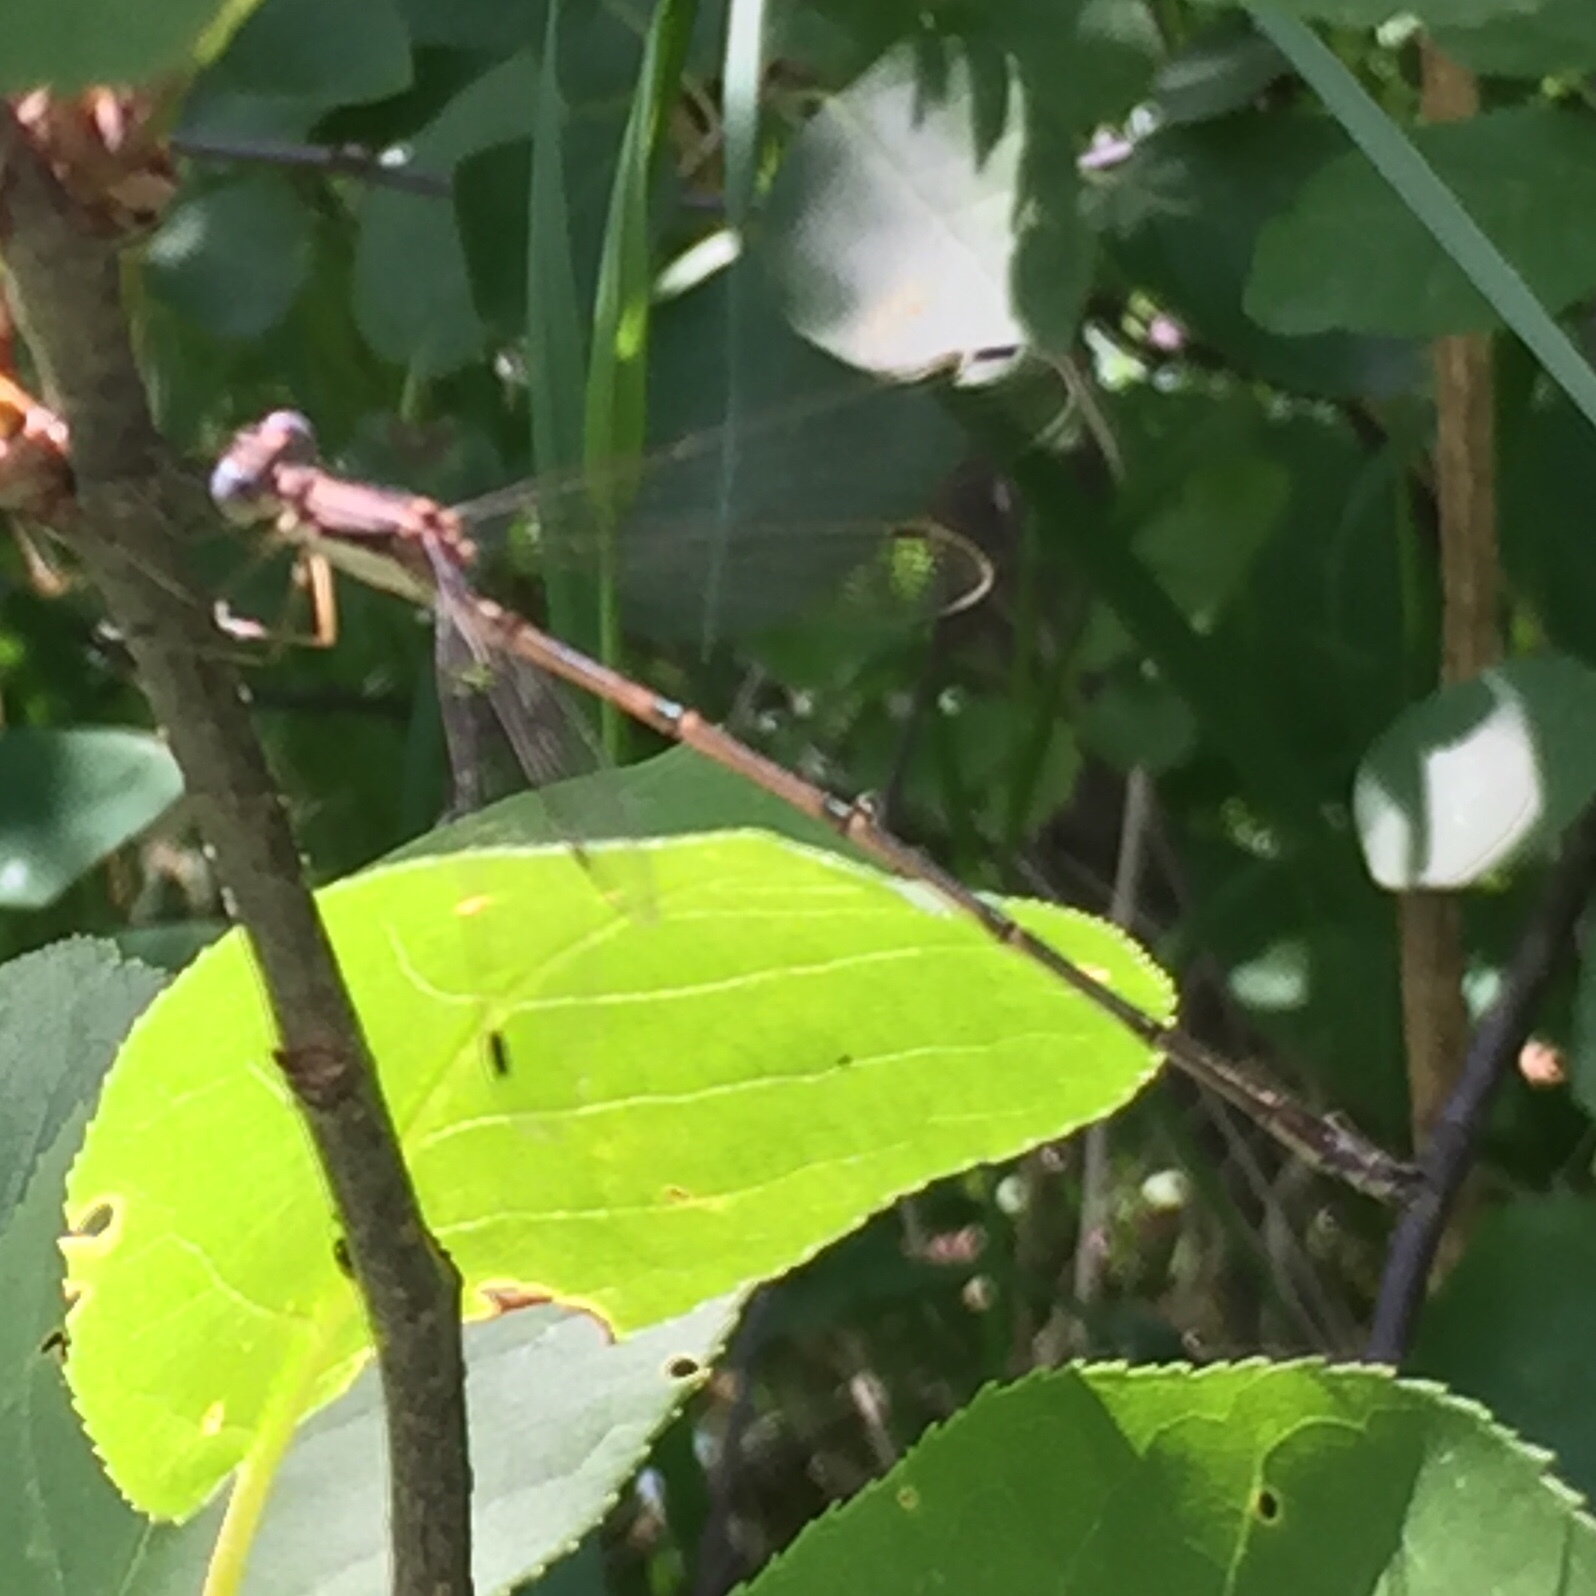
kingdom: Animalia
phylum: Arthropoda
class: Insecta
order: Odonata
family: Lestidae
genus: Lestes
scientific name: Lestes rectangularis
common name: Slender spreadwing
